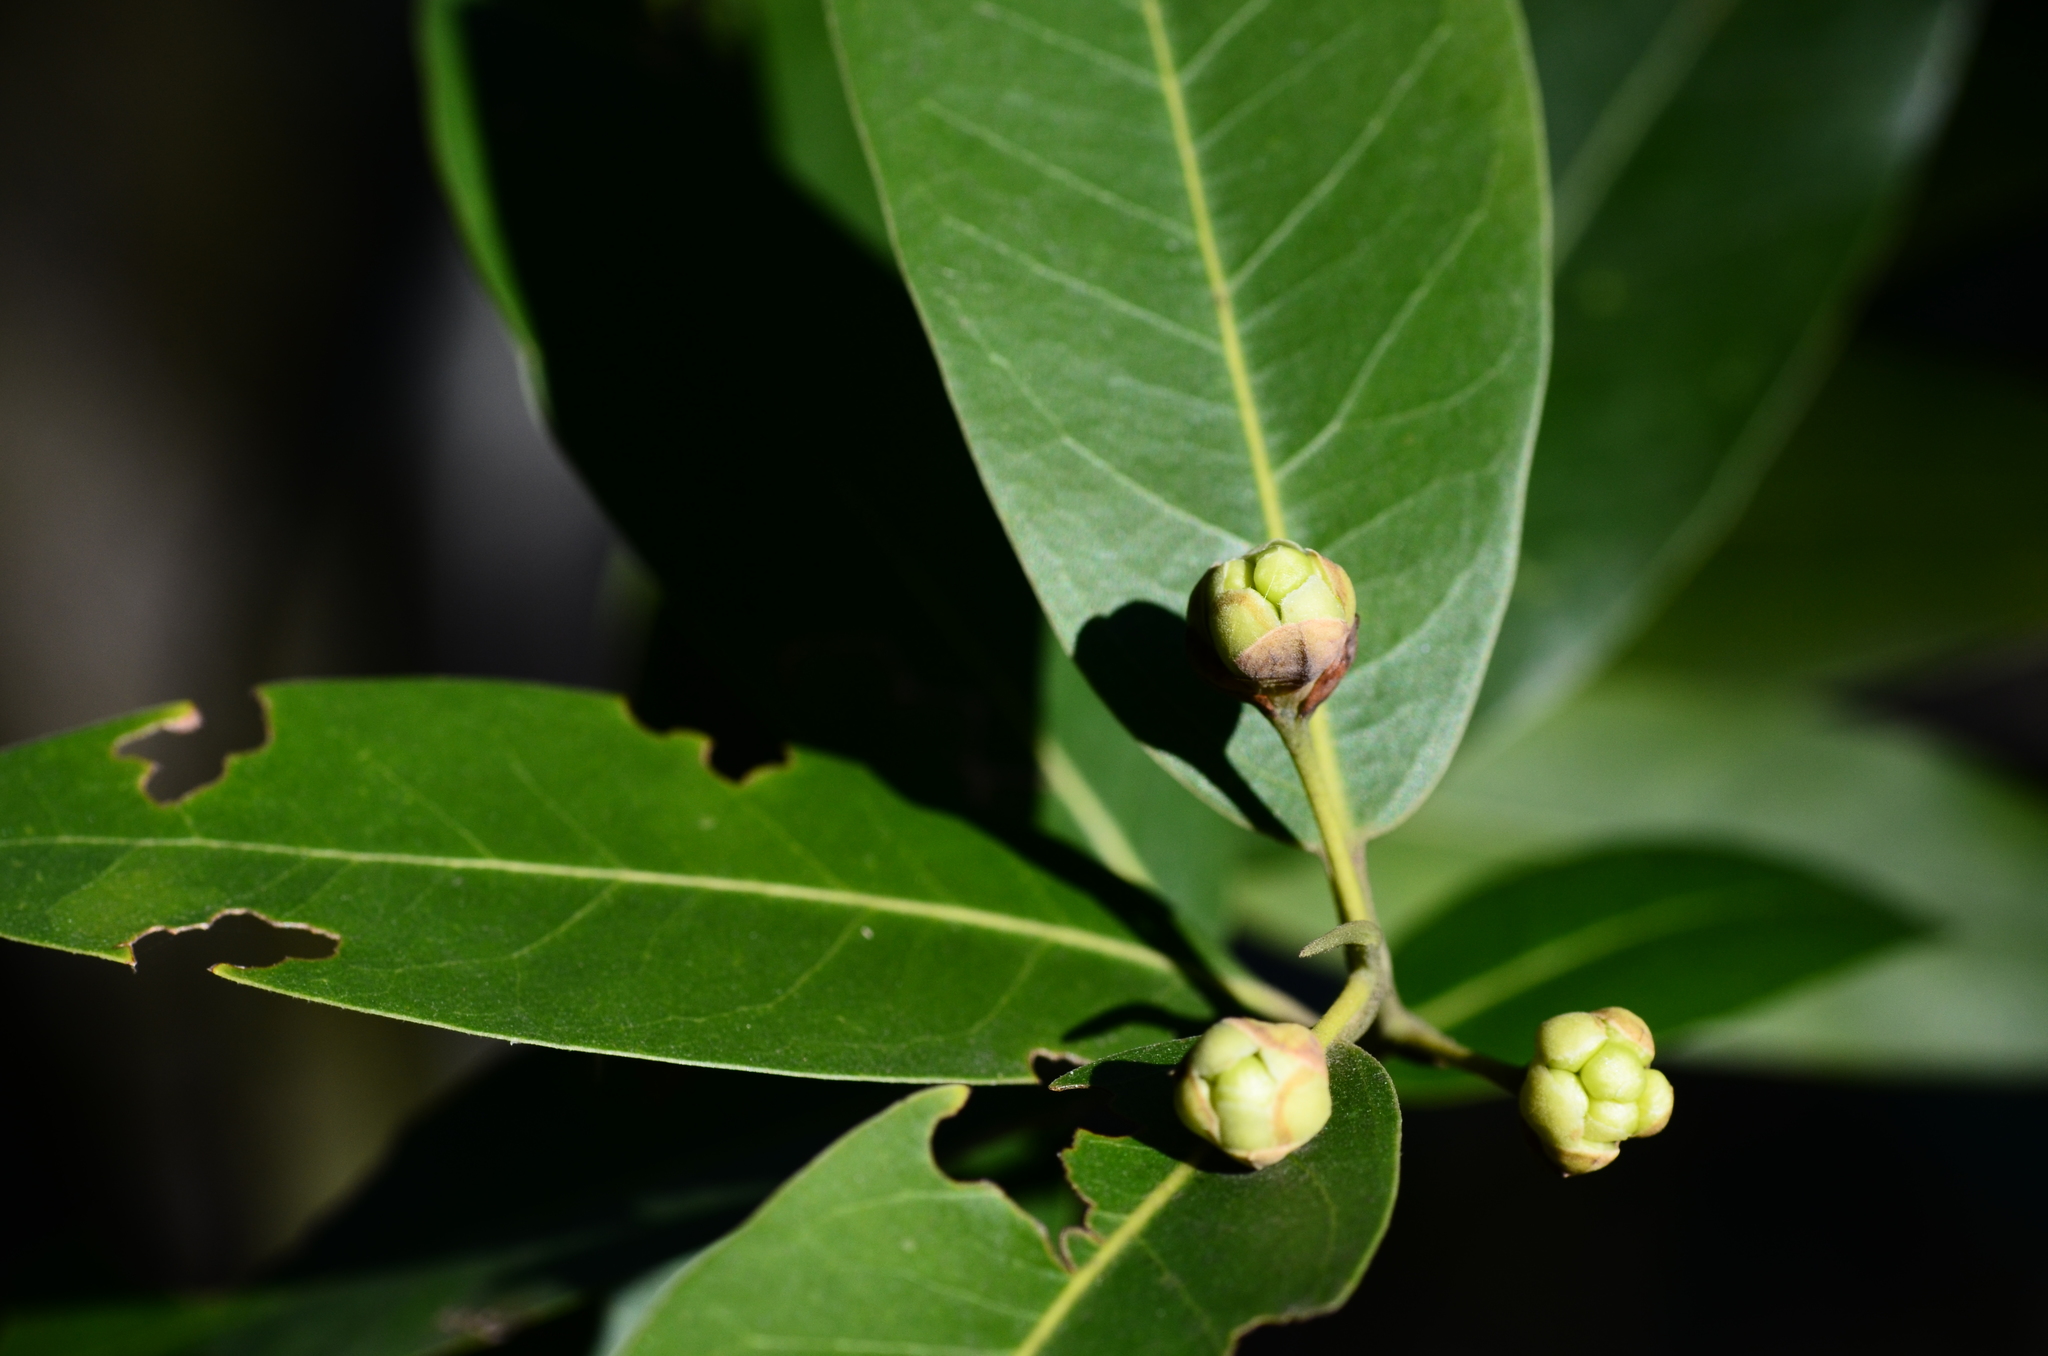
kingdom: Plantae
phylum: Tracheophyta
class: Magnoliopsida
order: Laurales
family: Lauraceae
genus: Umbellularia
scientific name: Umbellularia californica
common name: California bay
